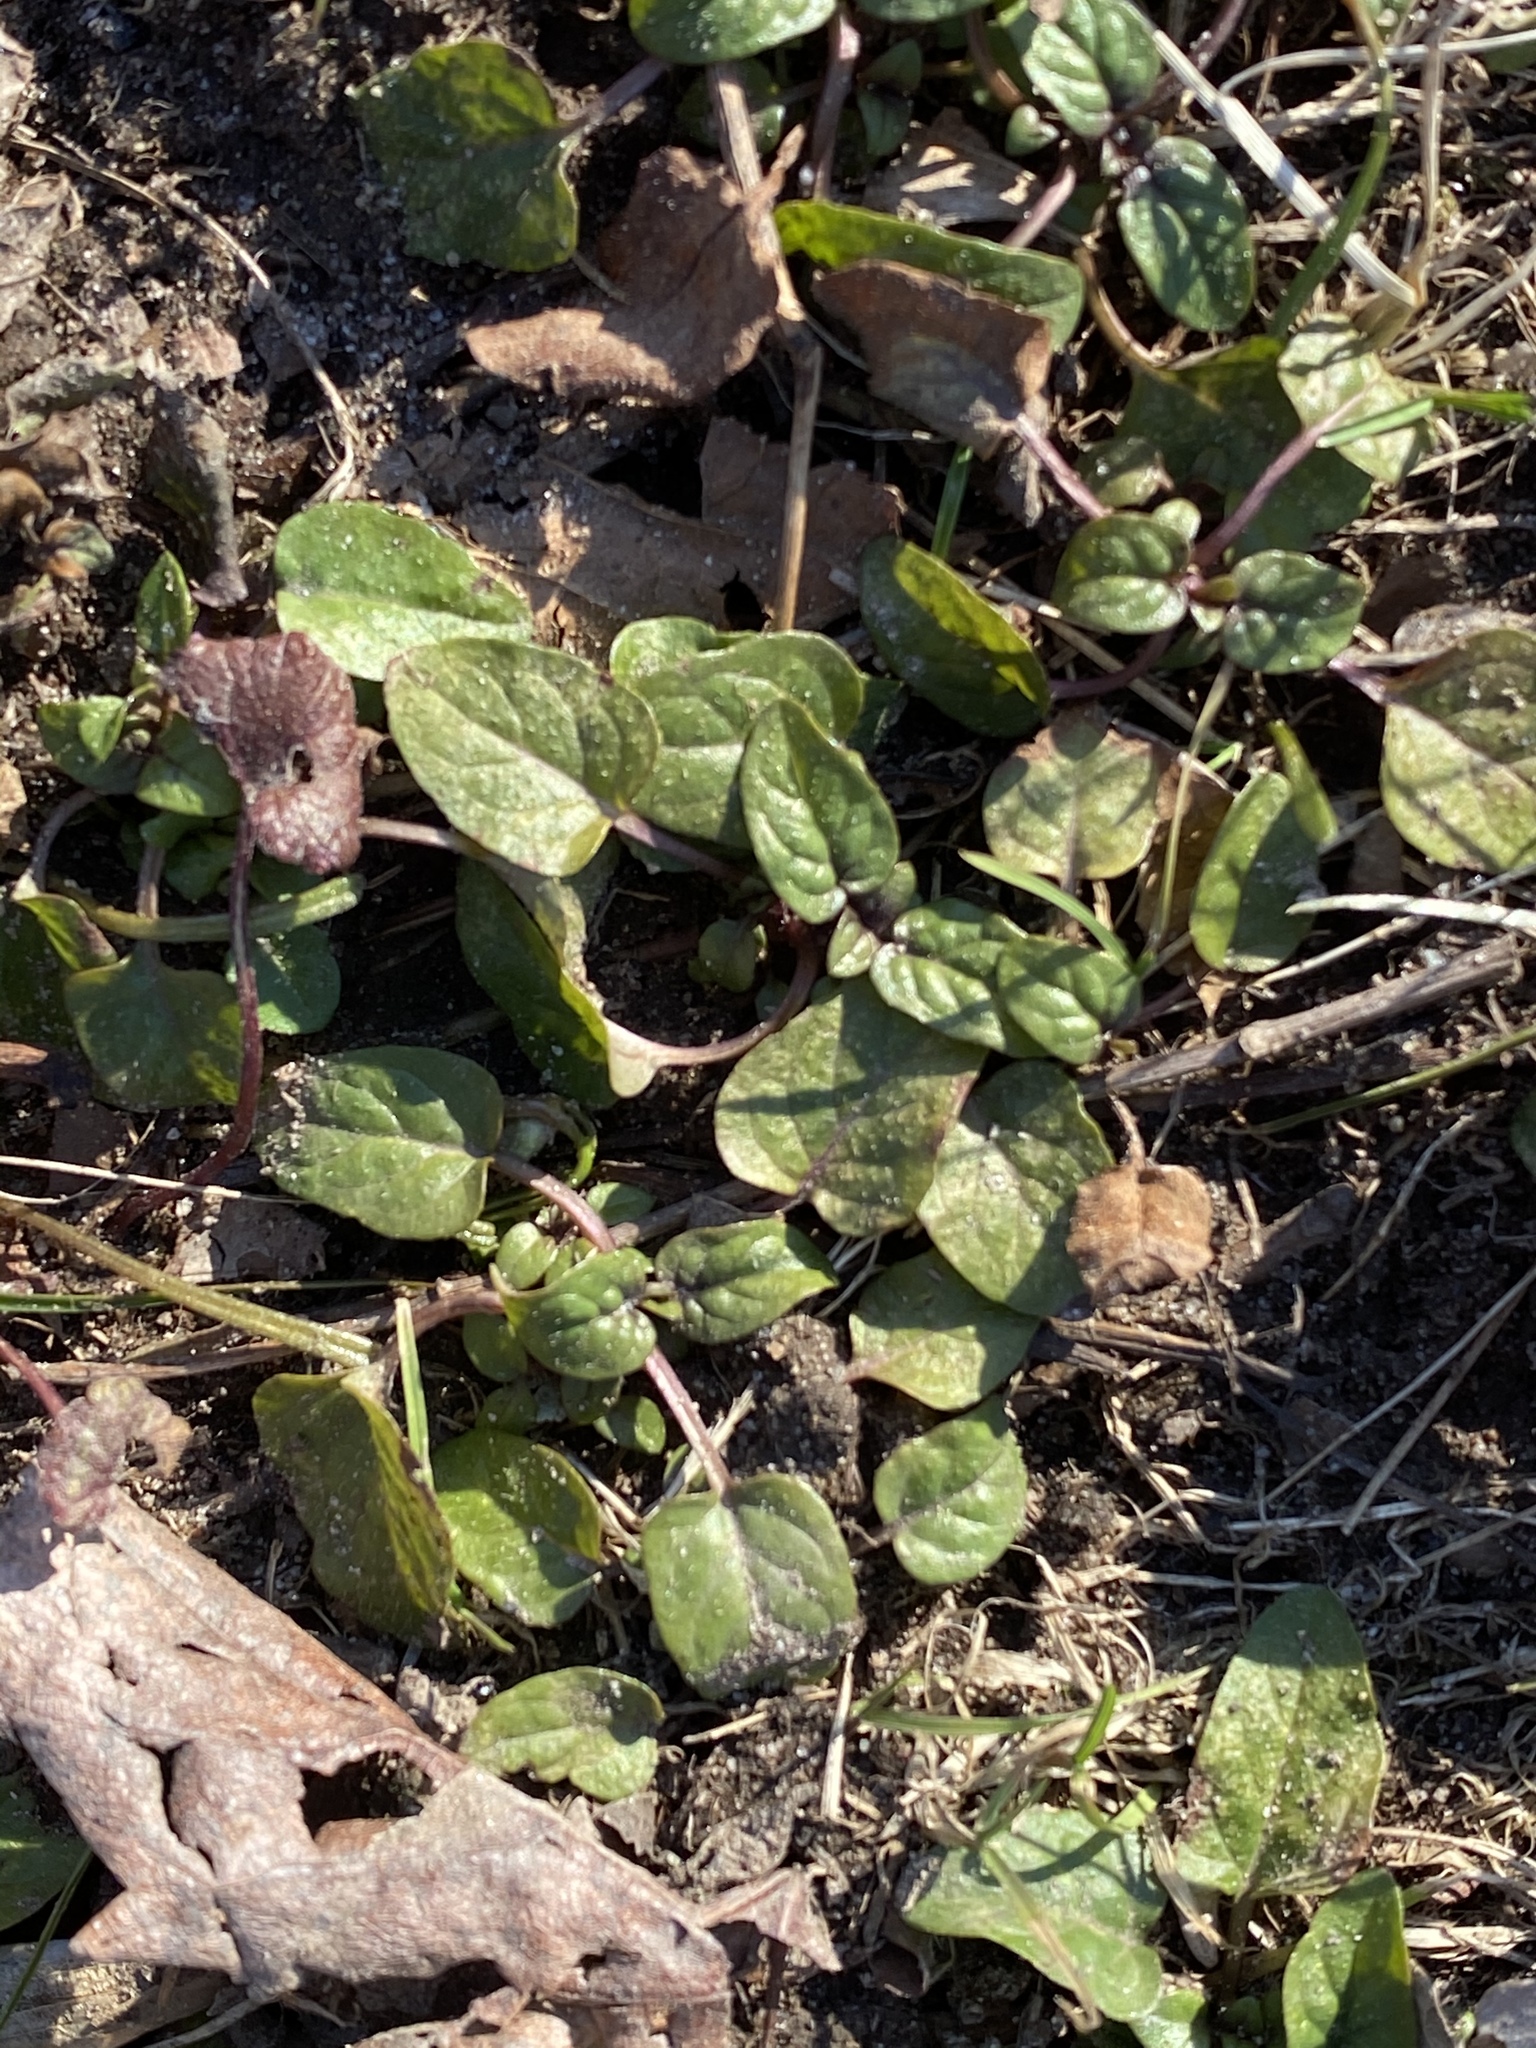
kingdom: Plantae
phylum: Tracheophyta
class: Magnoliopsida
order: Lamiales
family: Lamiaceae
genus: Prunella
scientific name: Prunella vulgaris
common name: Heal-all
